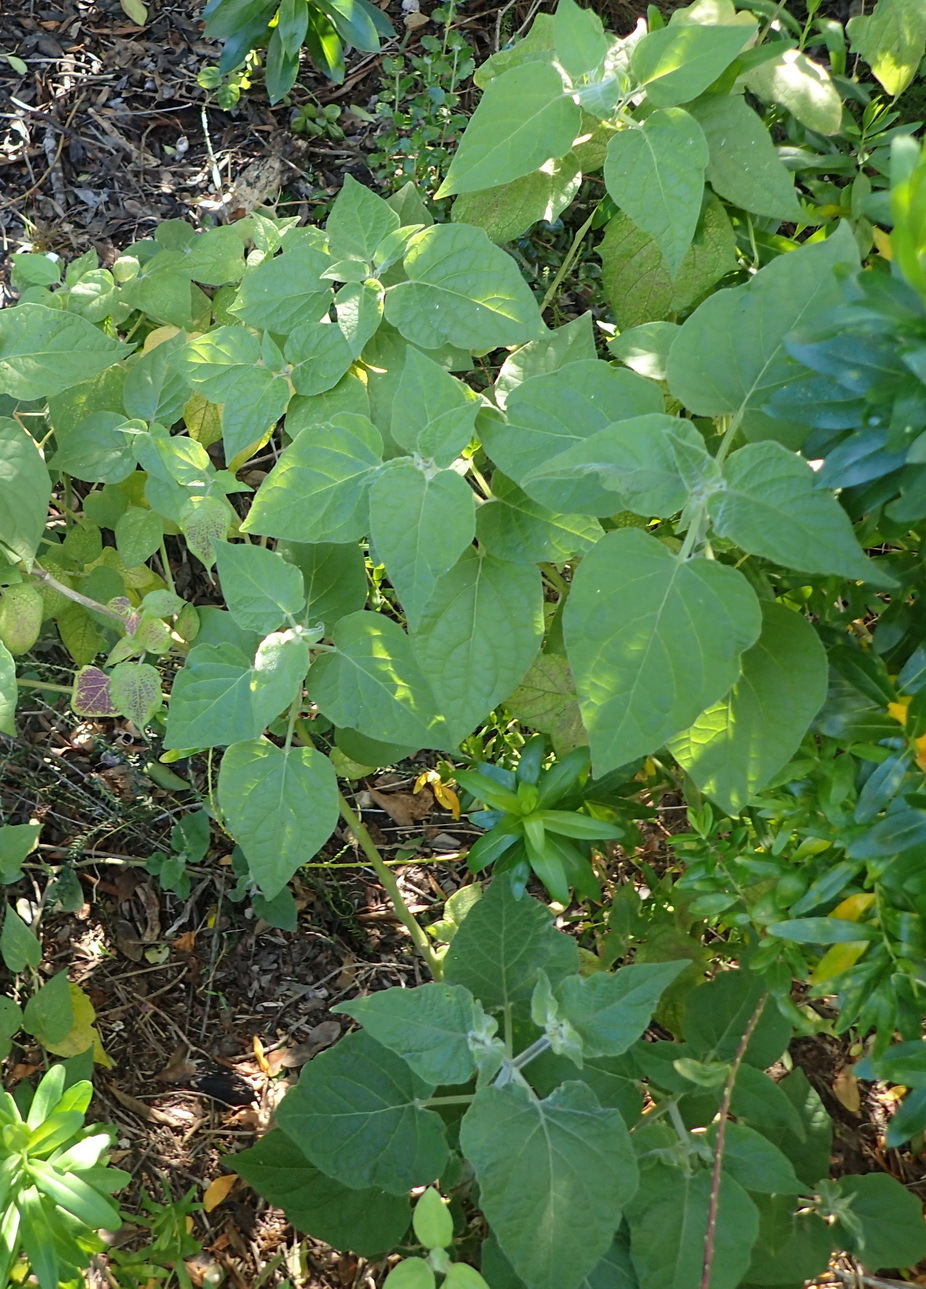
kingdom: Plantae
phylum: Tracheophyta
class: Magnoliopsida
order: Solanales
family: Solanaceae
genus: Physalis
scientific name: Physalis peruviana
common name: Cape-gooseberry
